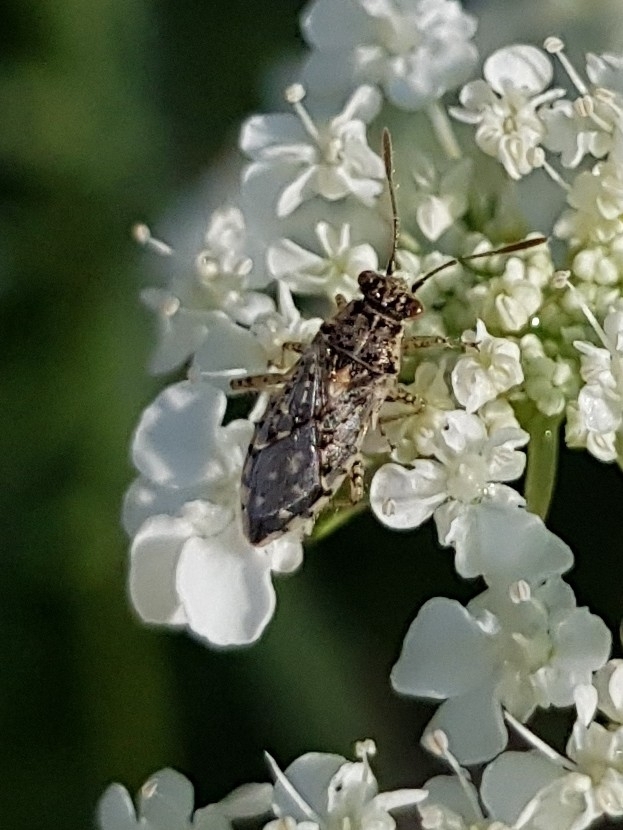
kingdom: Animalia
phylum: Arthropoda
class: Insecta
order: Hemiptera
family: Rhopalidae
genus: Brachycarenus
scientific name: Brachycarenus tigrinus
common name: Scentless plant bug
